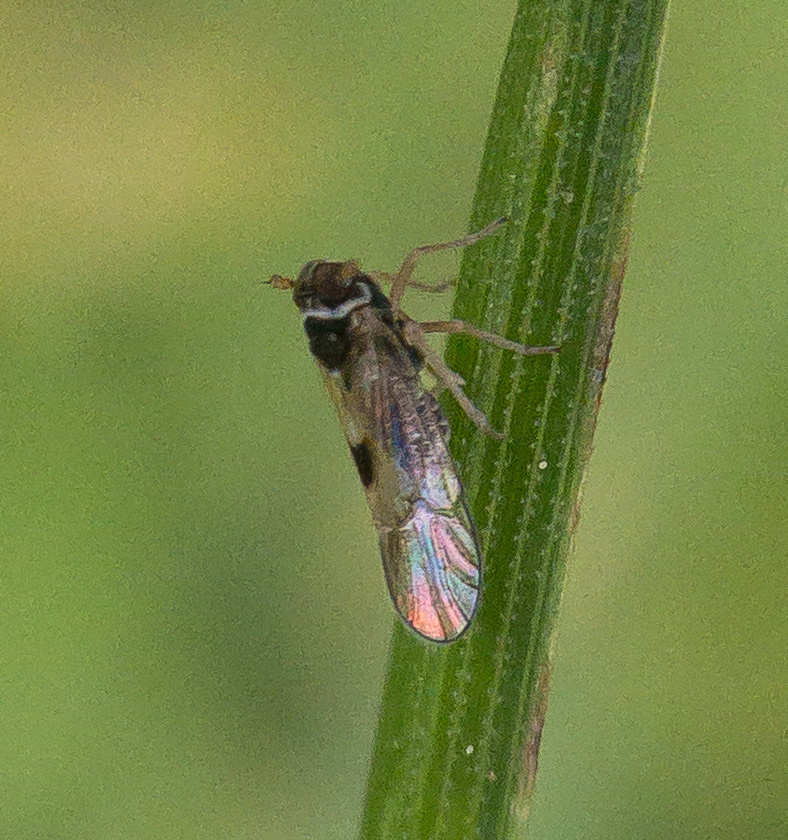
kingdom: Animalia
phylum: Arthropoda
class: Insecta
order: Hemiptera
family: Delphacidae
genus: Chionomus
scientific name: Chionomus
